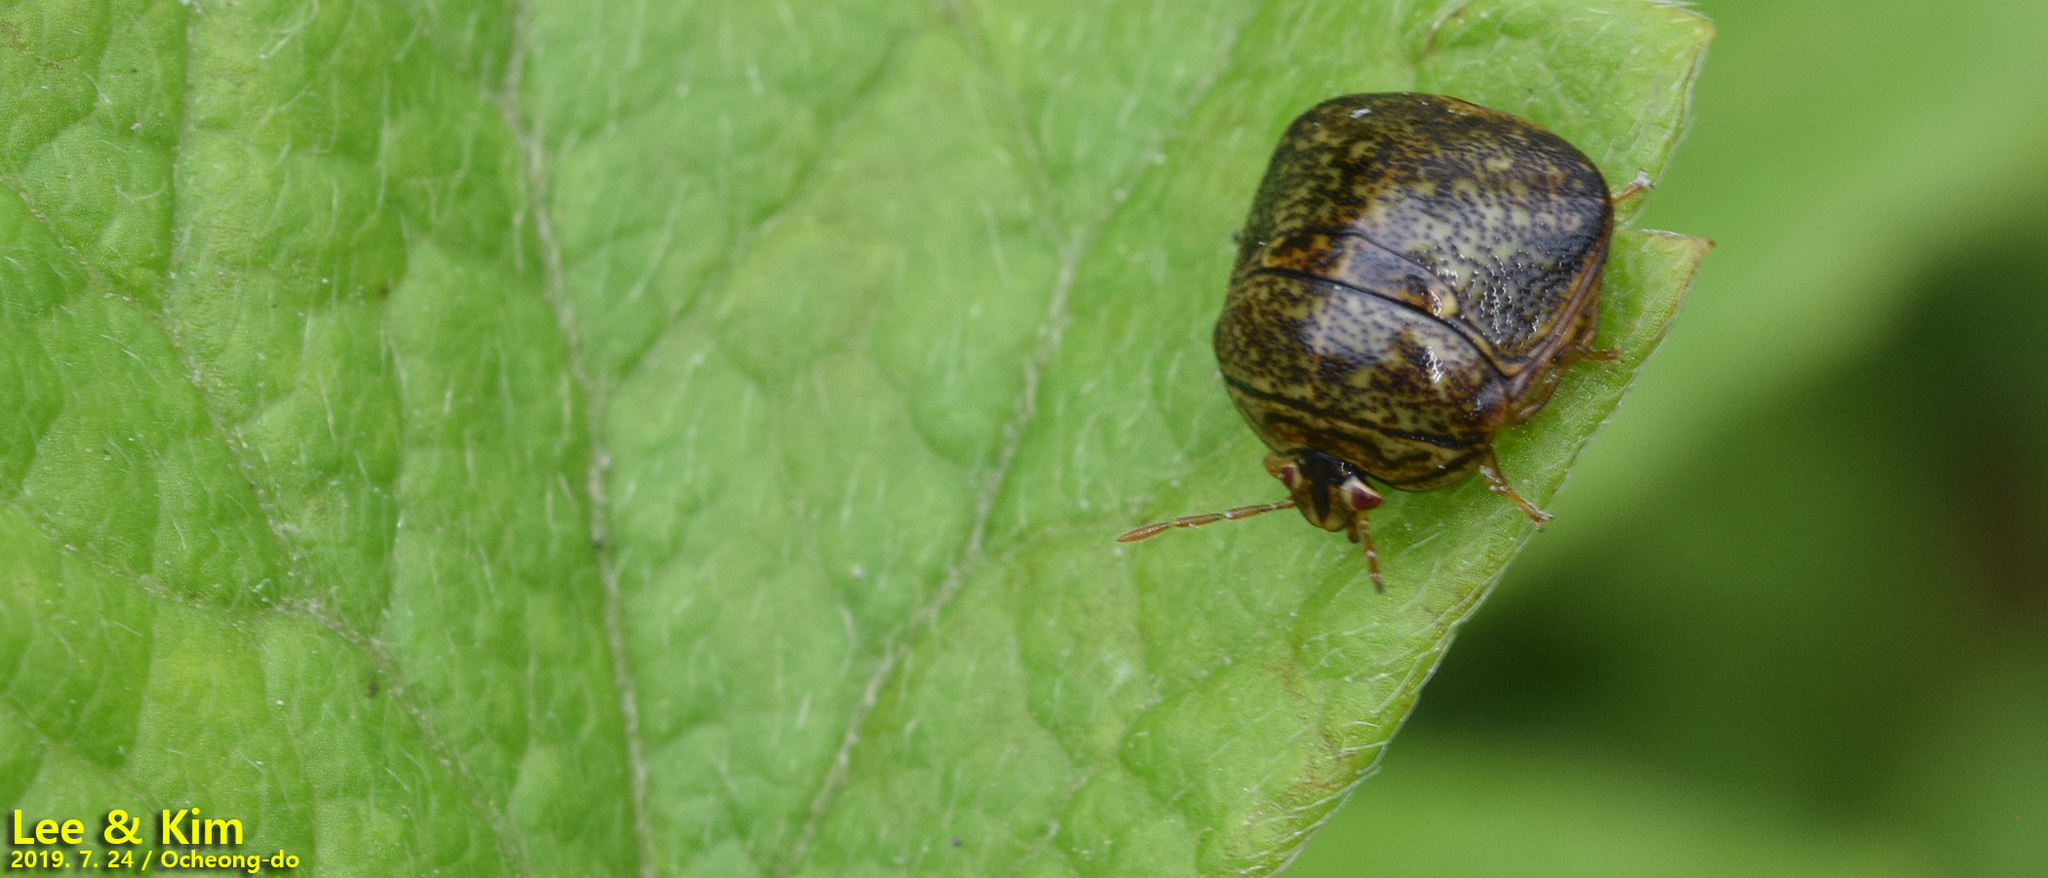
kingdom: Animalia
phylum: Arthropoda
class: Insecta
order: Hemiptera
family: Plataspidae
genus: Megacopta
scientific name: Megacopta cribraria
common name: Bean plataspid
